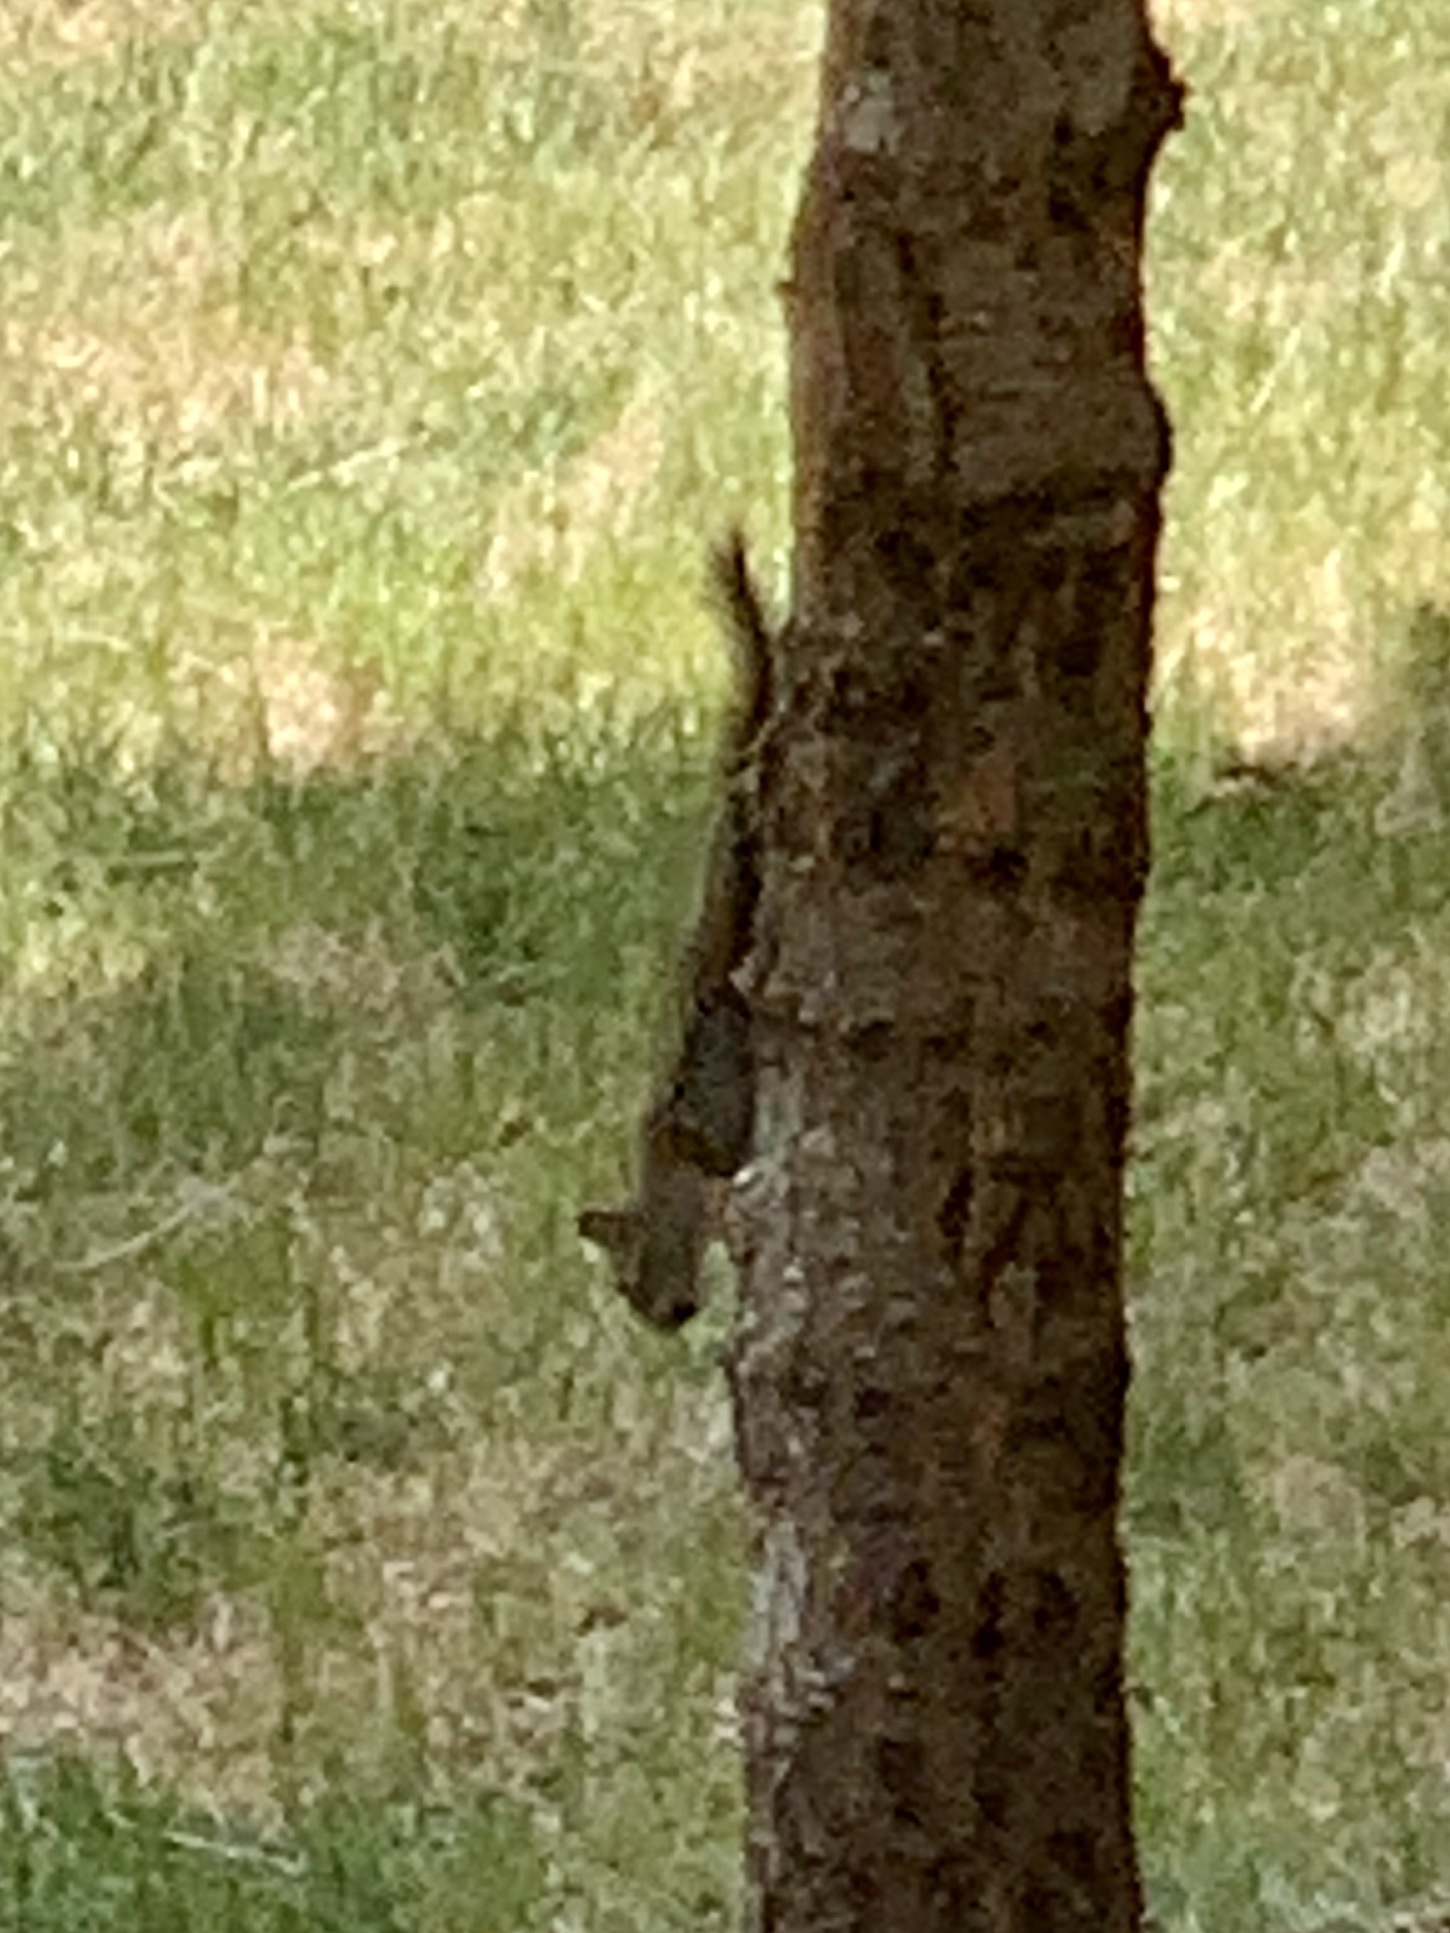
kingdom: Animalia
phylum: Chordata
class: Mammalia
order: Rodentia
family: Sciuridae
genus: Tamiasciurus
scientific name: Tamiasciurus hudsonicus
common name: Red squirrel
